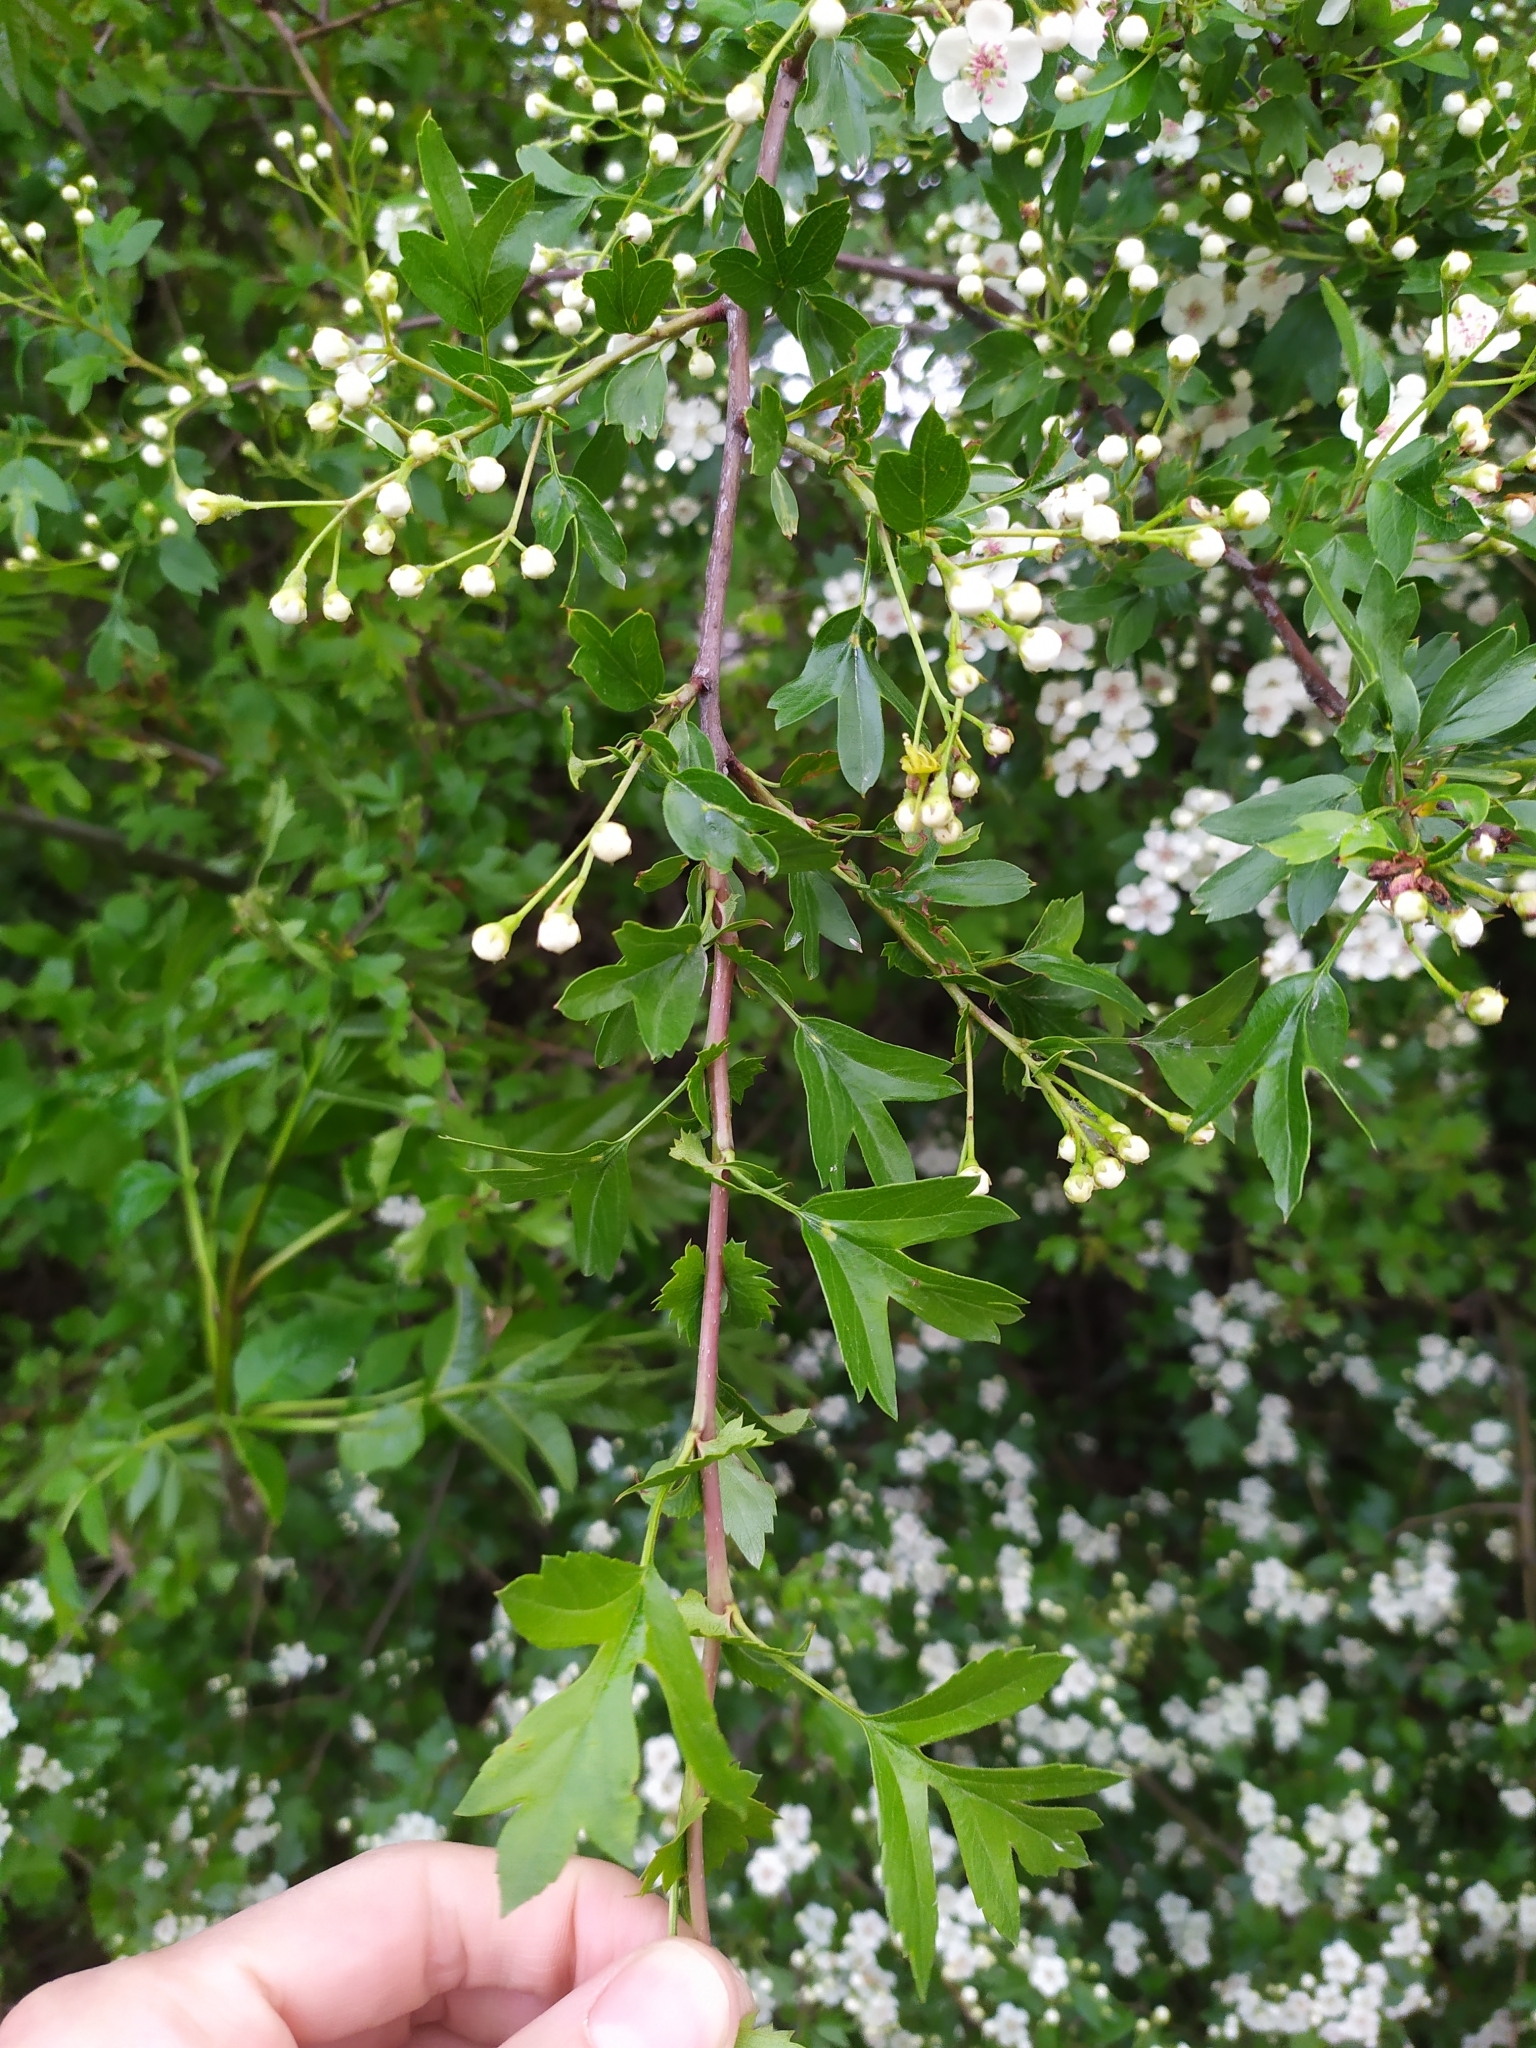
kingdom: Plantae
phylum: Tracheophyta
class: Magnoliopsida
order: Rosales
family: Rosaceae
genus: Crataegus
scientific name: Crataegus monogyna
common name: Hawthorn
